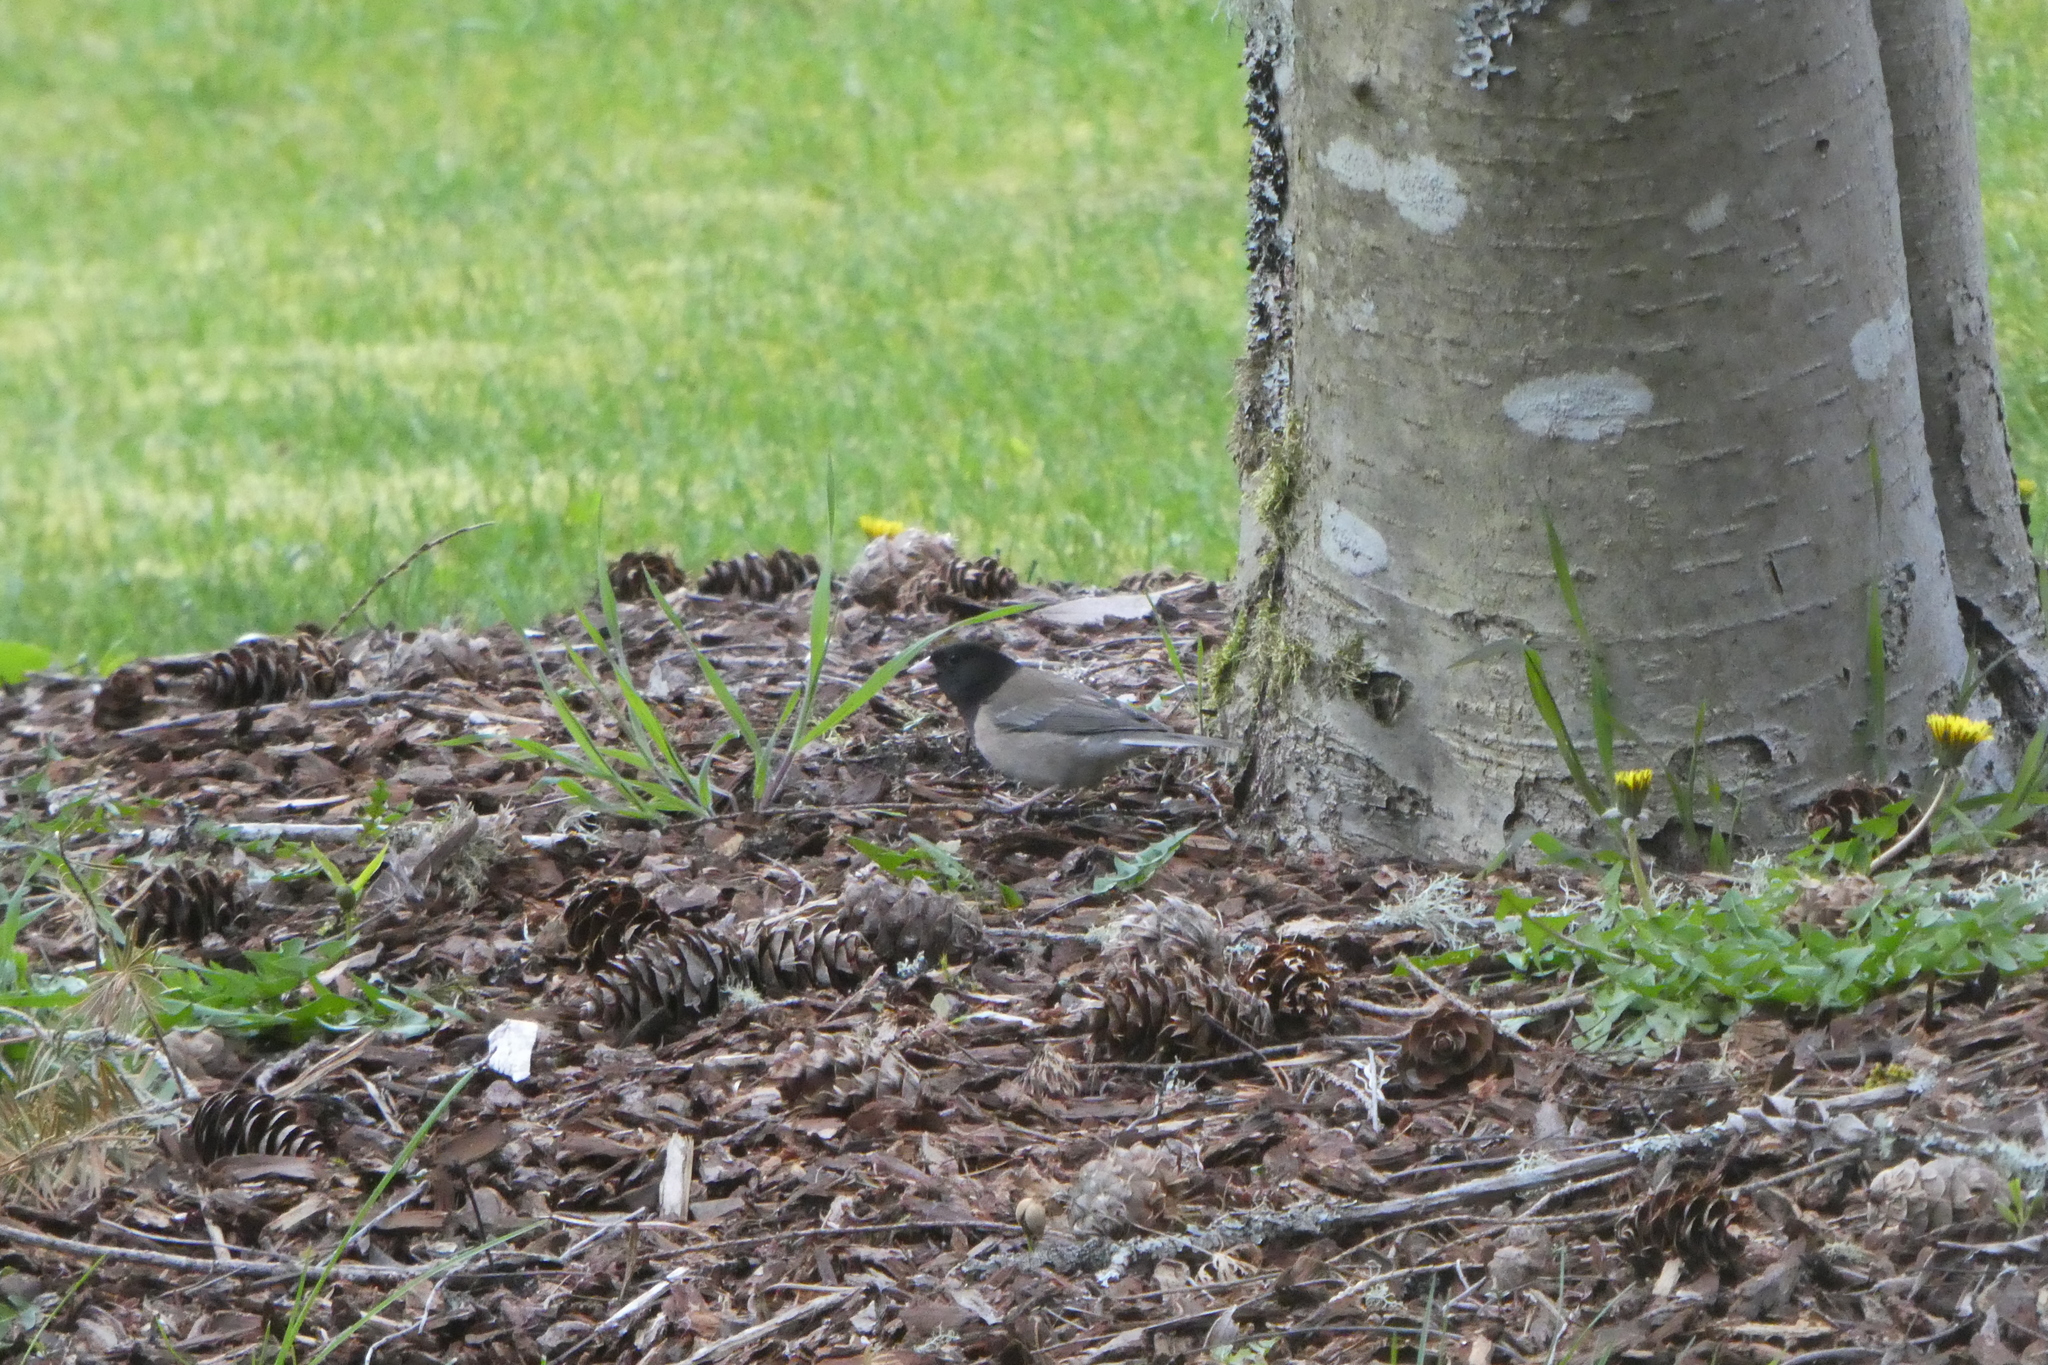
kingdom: Animalia
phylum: Chordata
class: Aves
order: Passeriformes
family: Passerellidae
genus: Junco
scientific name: Junco hyemalis
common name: Dark-eyed junco
